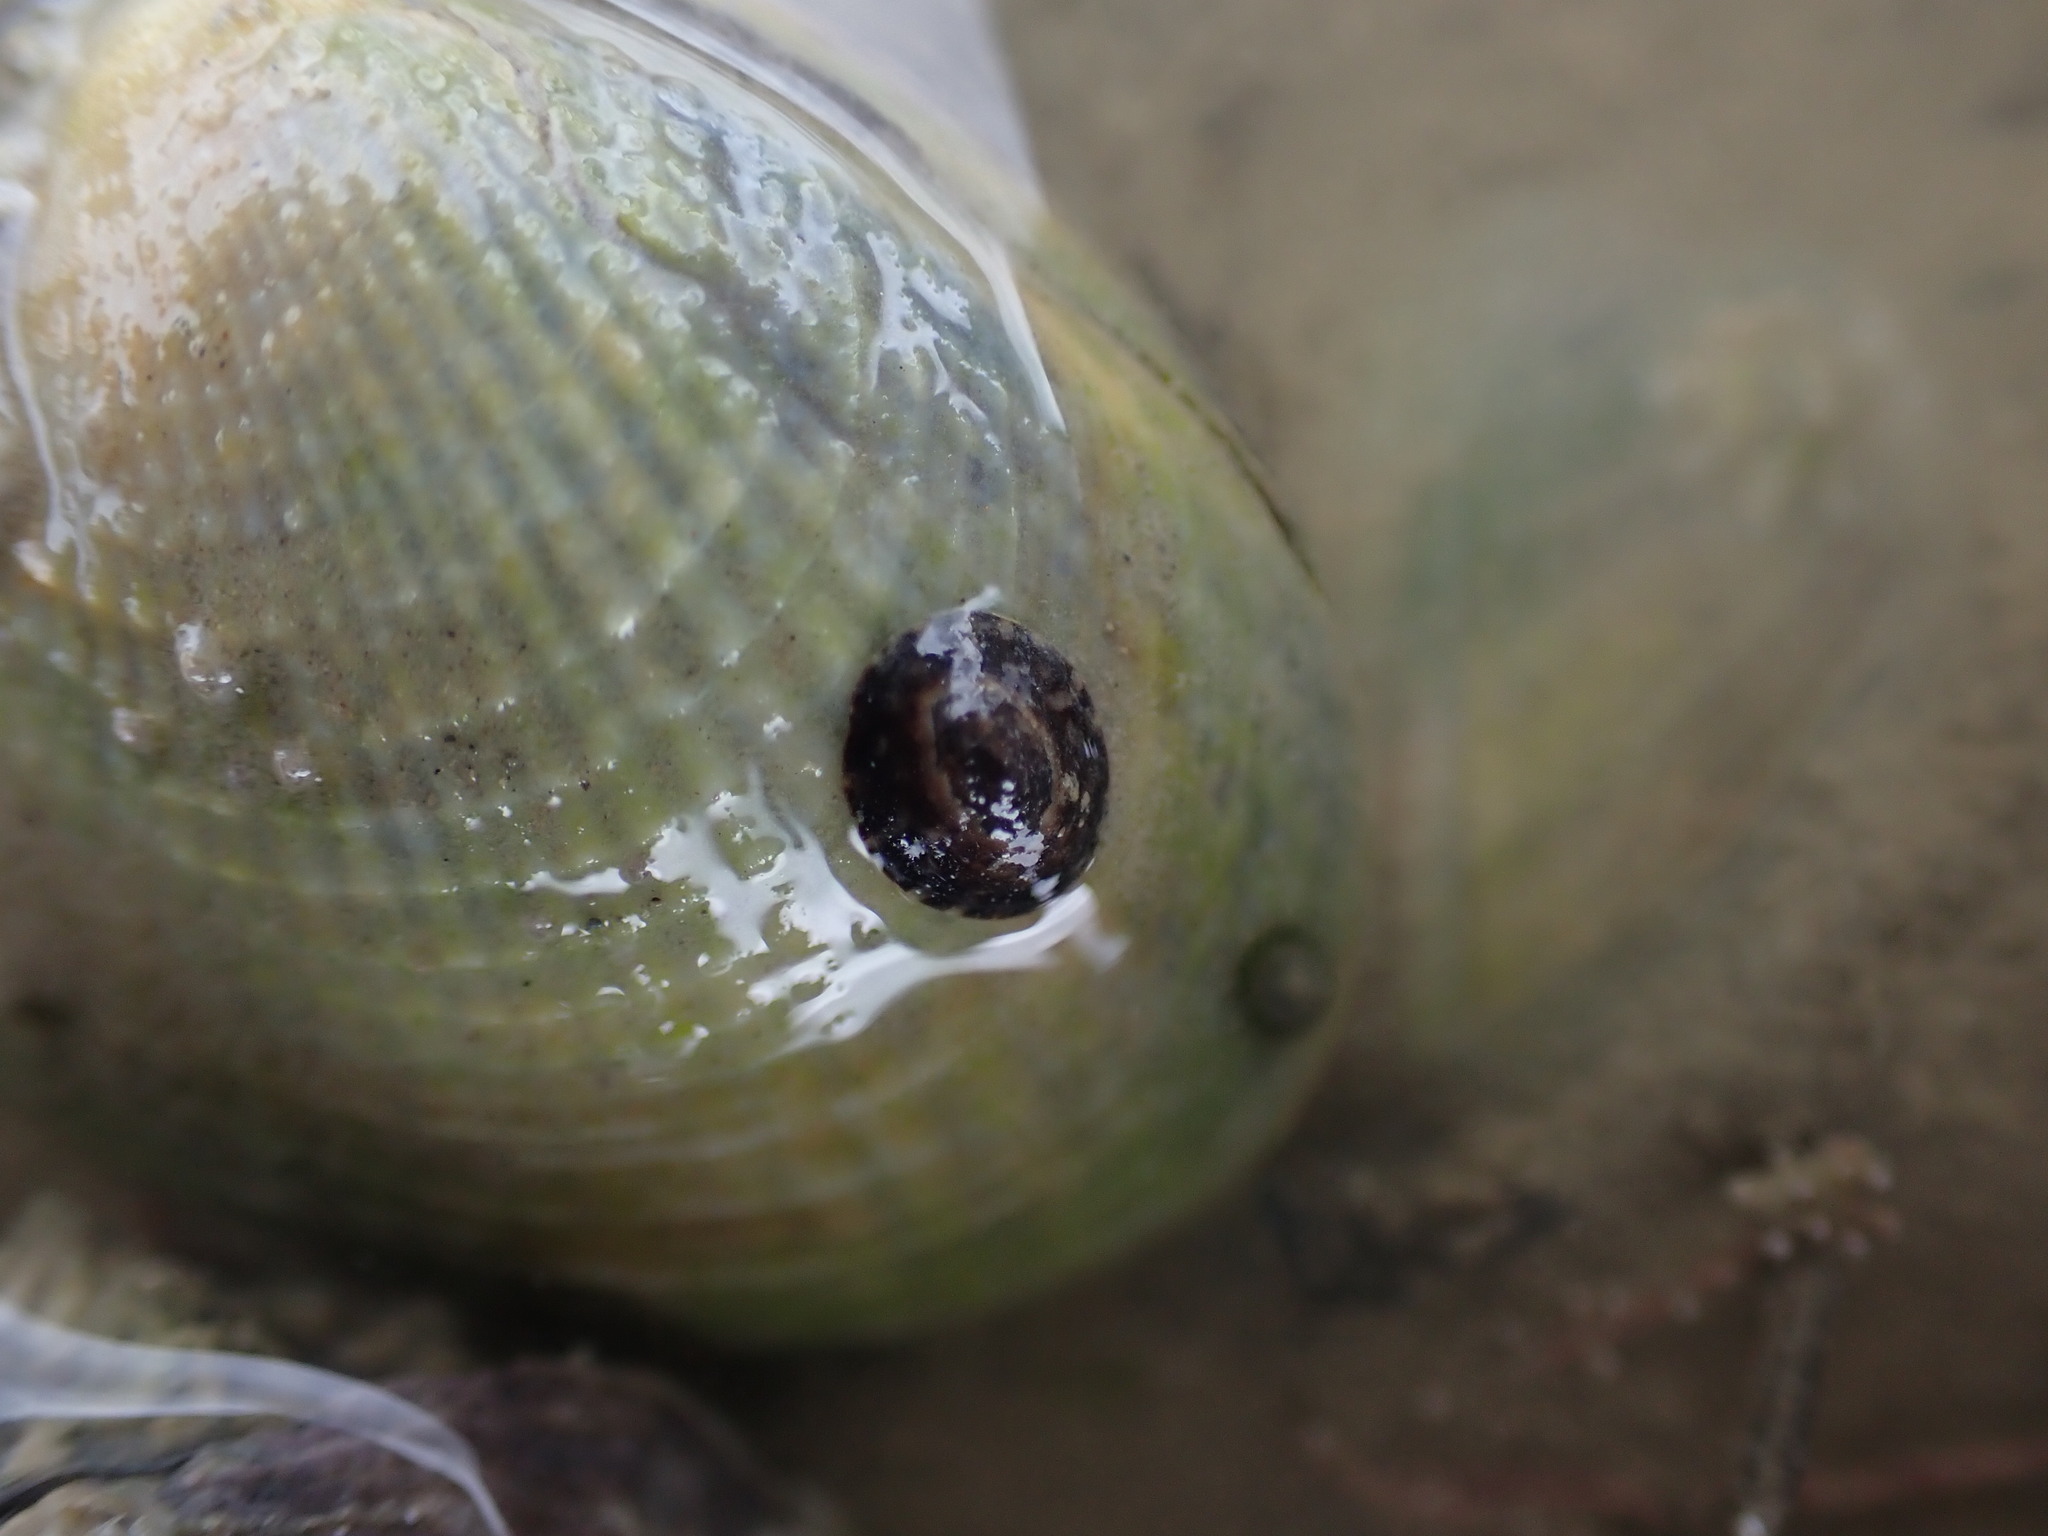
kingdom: Animalia
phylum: Mollusca
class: Gastropoda
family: Lottiidae
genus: Notoacmea
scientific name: Notoacmea scapha
